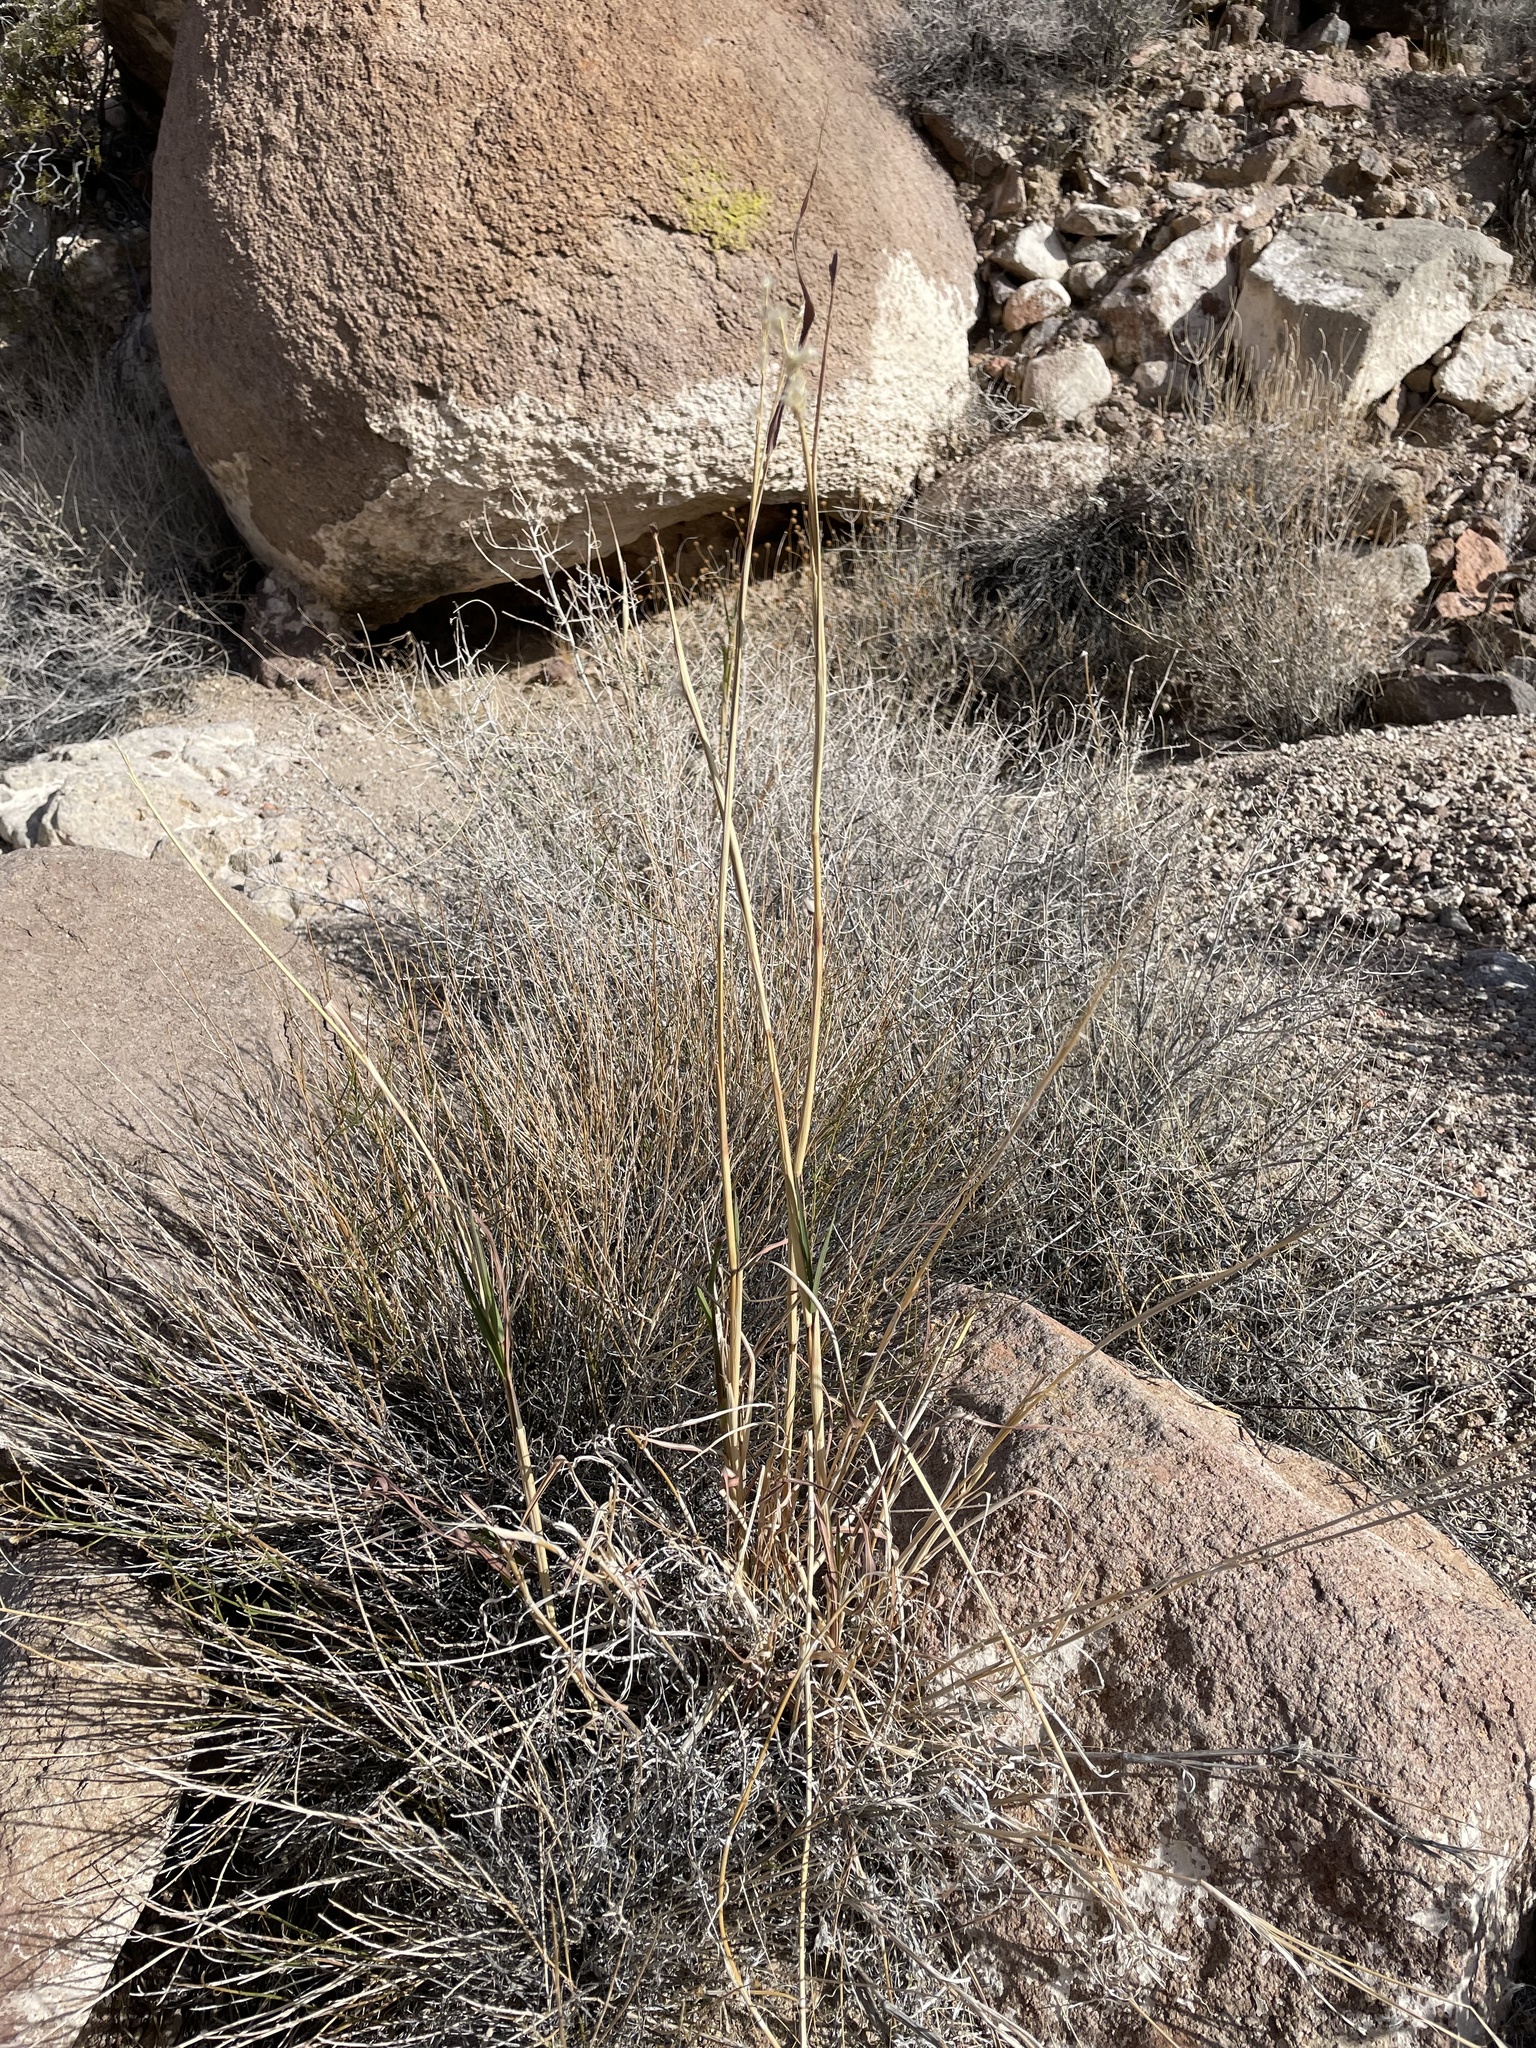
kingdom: Plantae
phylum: Tracheophyta
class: Liliopsida
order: Poales
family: Poaceae
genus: Bothriochloa
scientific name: Bothriochloa barbinodis
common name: Cane bluestem
